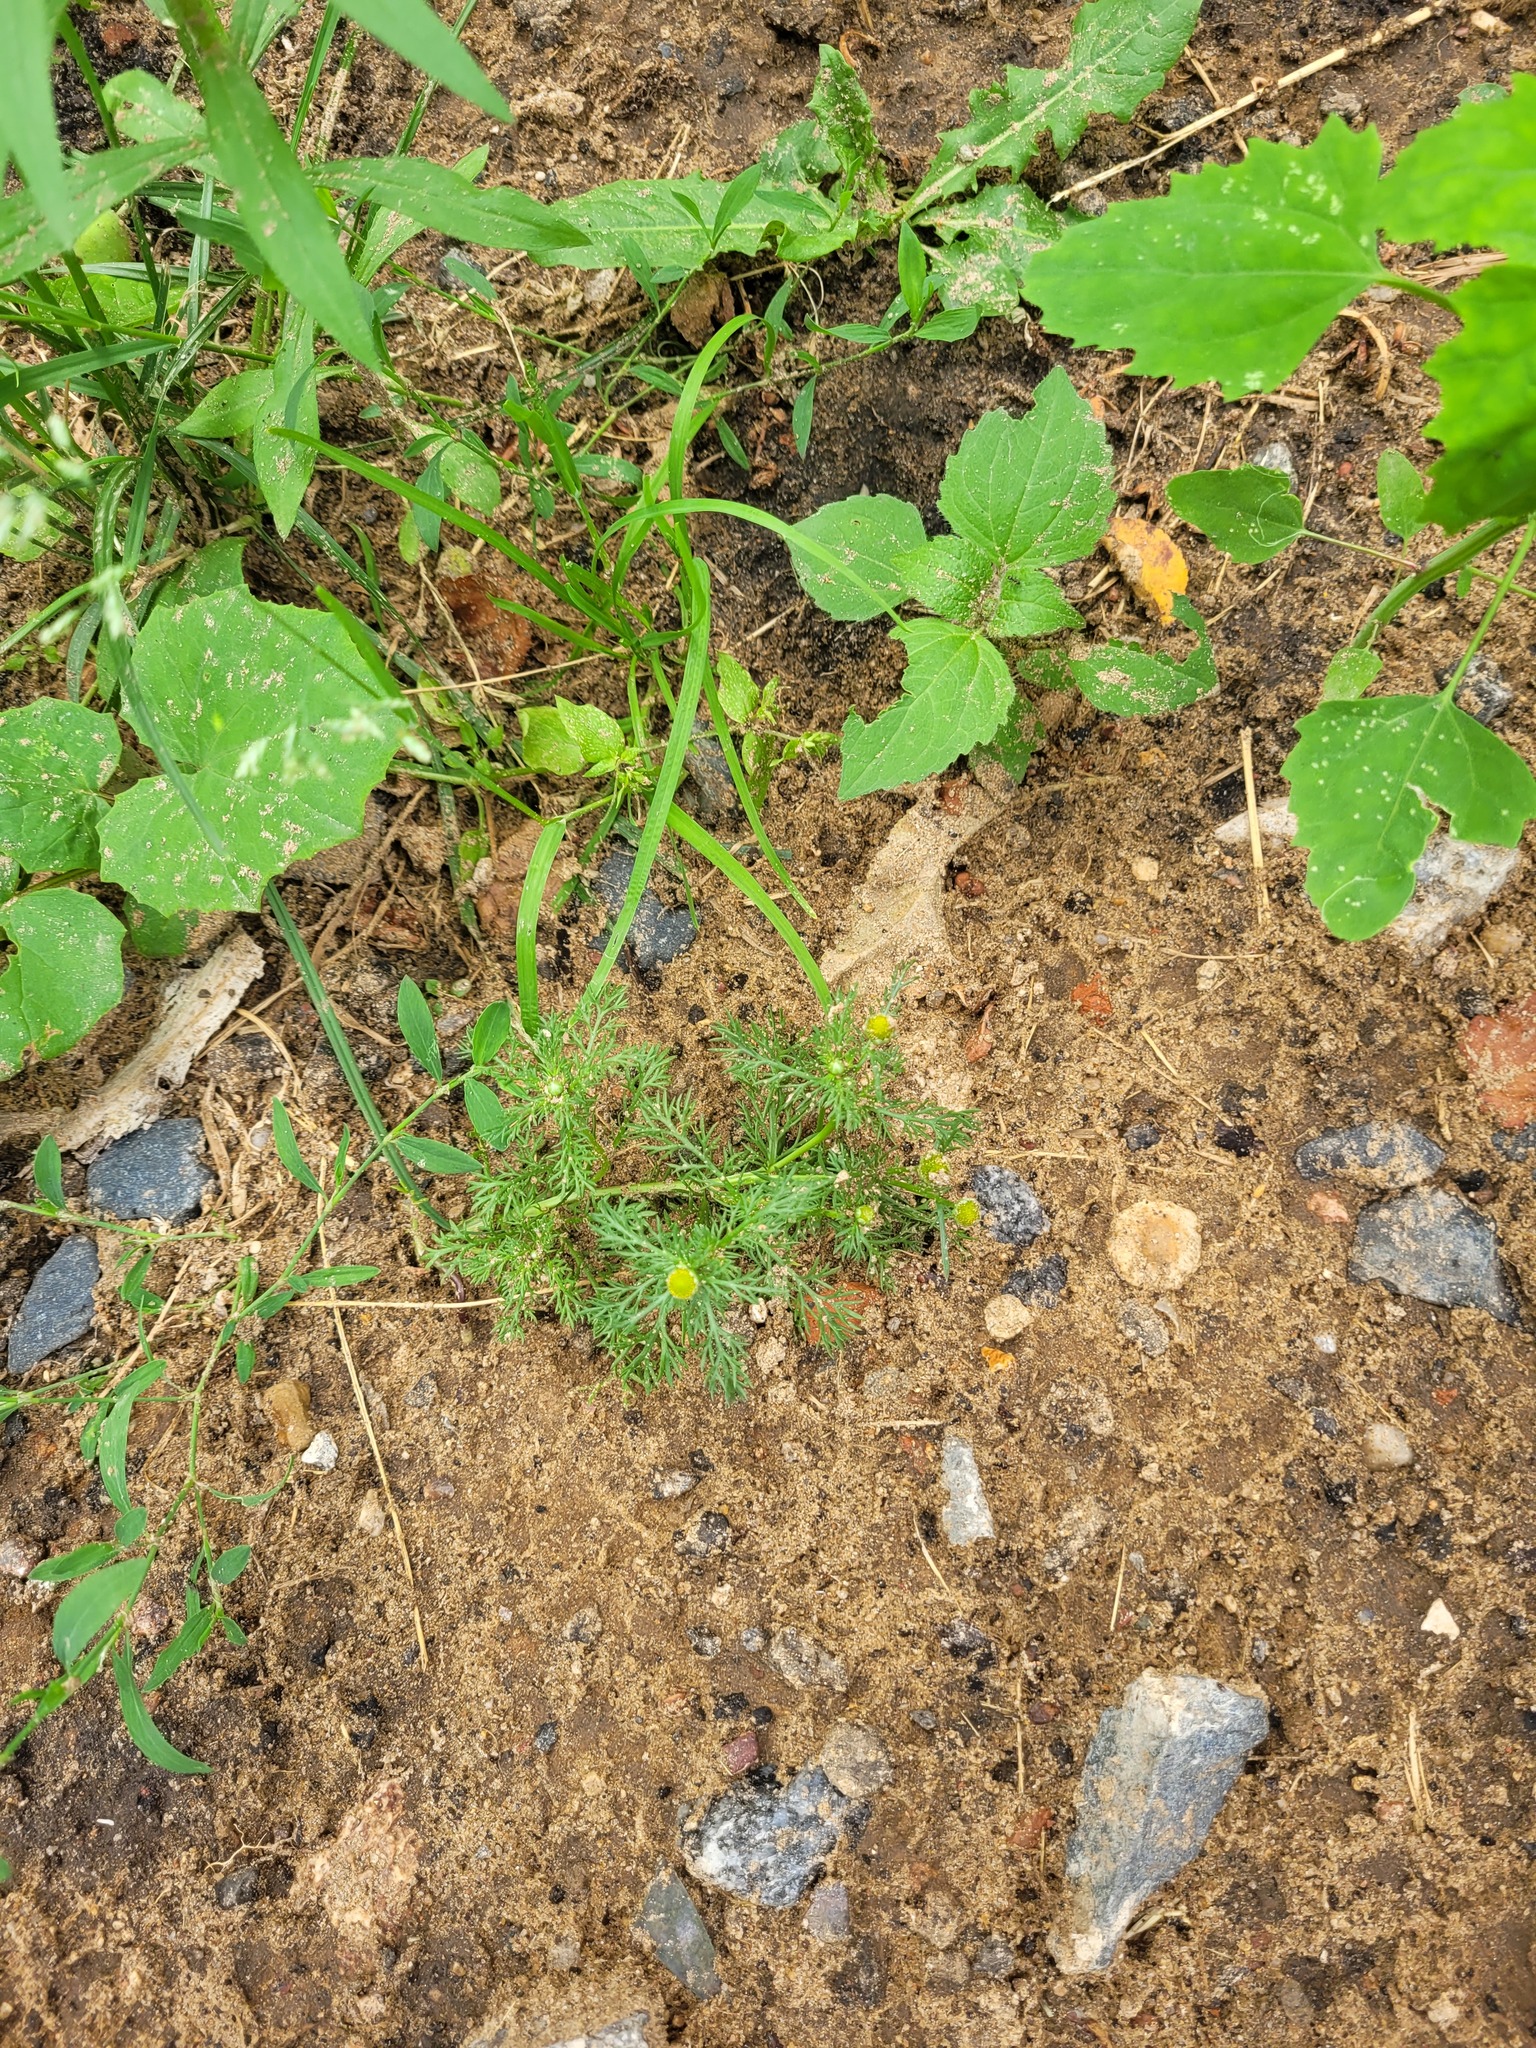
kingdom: Plantae
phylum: Tracheophyta
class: Magnoliopsida
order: Asterales
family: Asteraceae
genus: Matricaria
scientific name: Matricaria discoidea
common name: Disc mayweed
